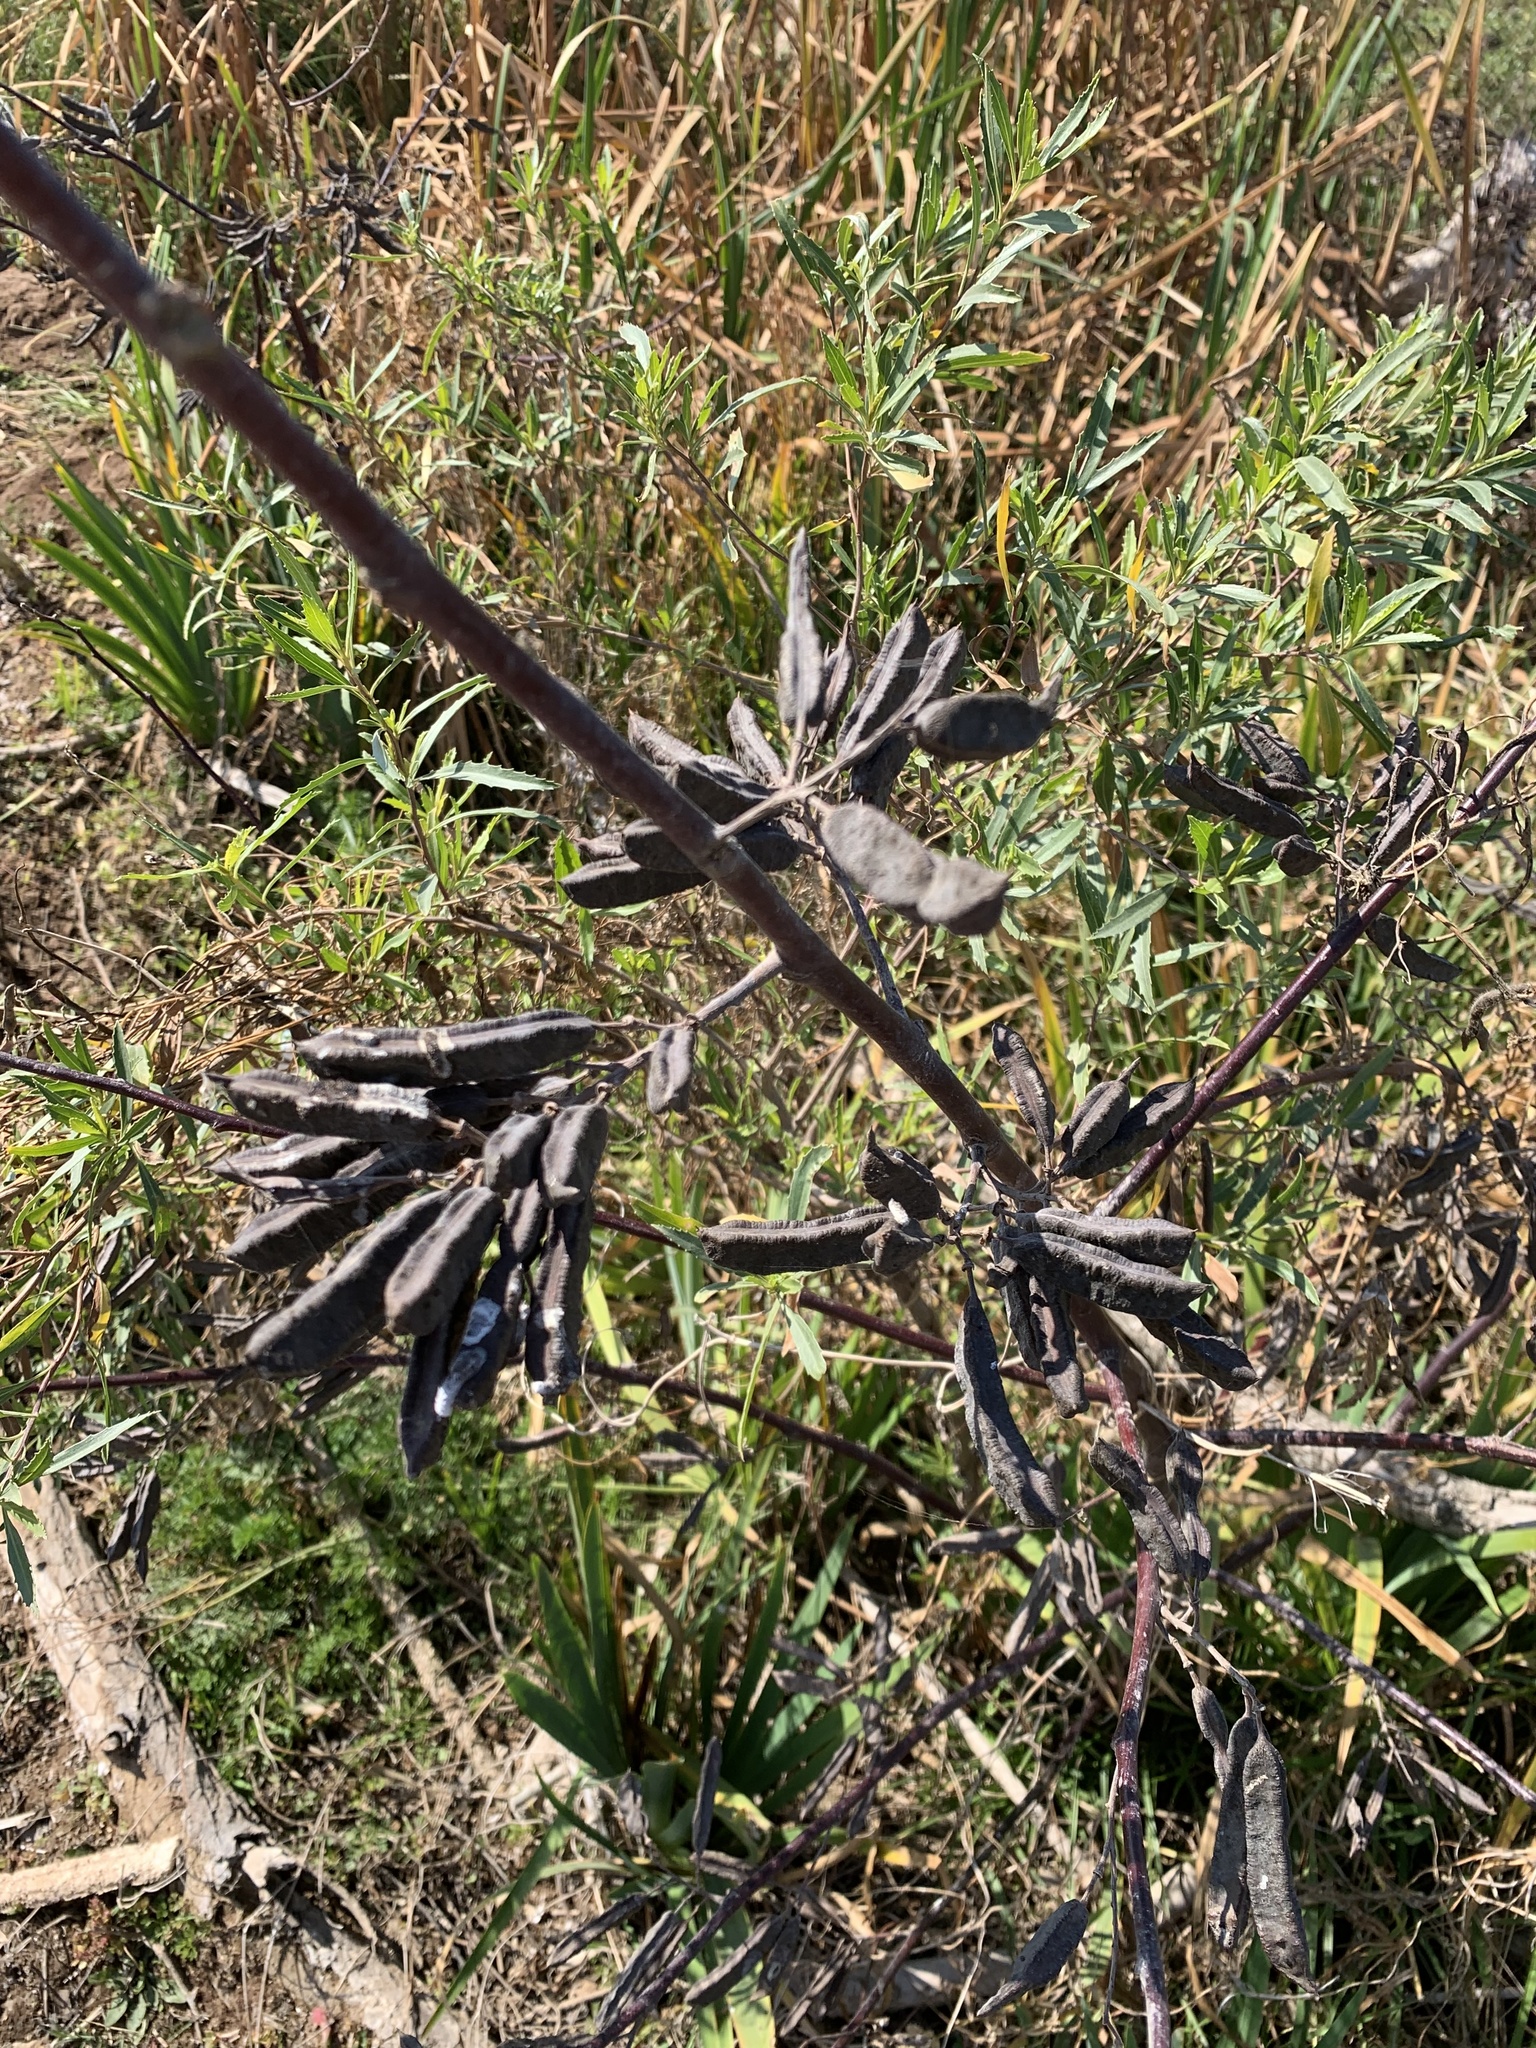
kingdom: Plantae
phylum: Tracheophyta
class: Magnoliopsida
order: Fabales
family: Fabaceae
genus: Sesbania
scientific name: Sesbania virgata
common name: Wand riverhemp
